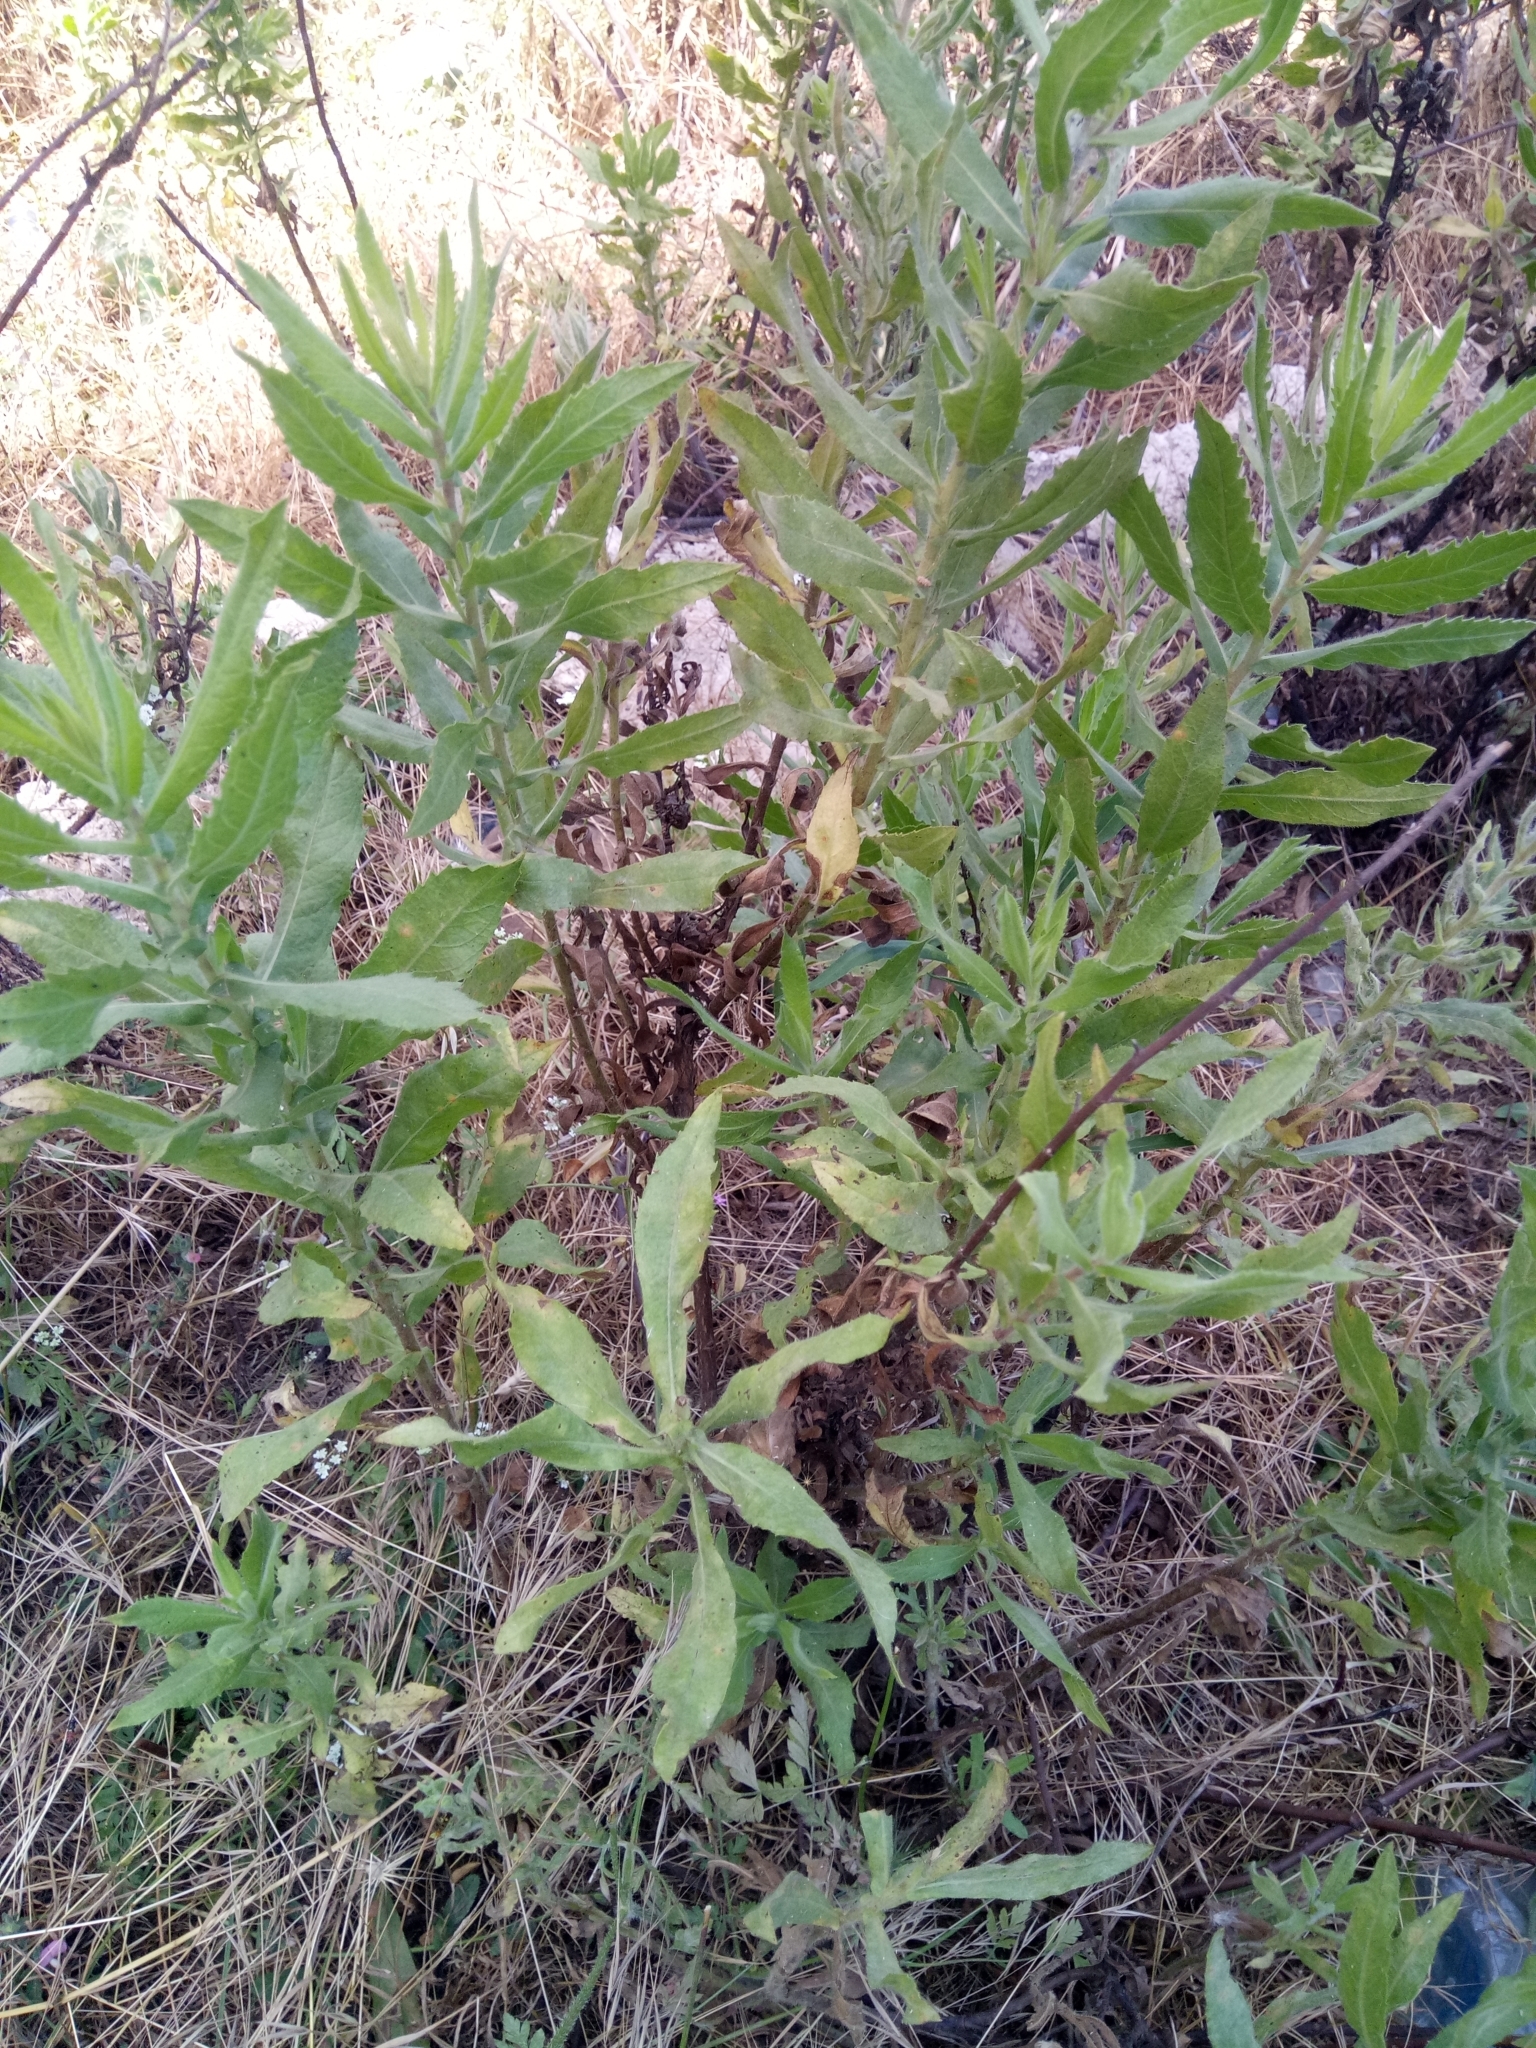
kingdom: Plantae
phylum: Tracheophyta
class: Magnoliopsida
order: Asterales
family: Asteraceae
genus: Dittrichia
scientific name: Dittrichia viscosa
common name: Woody fleabane
